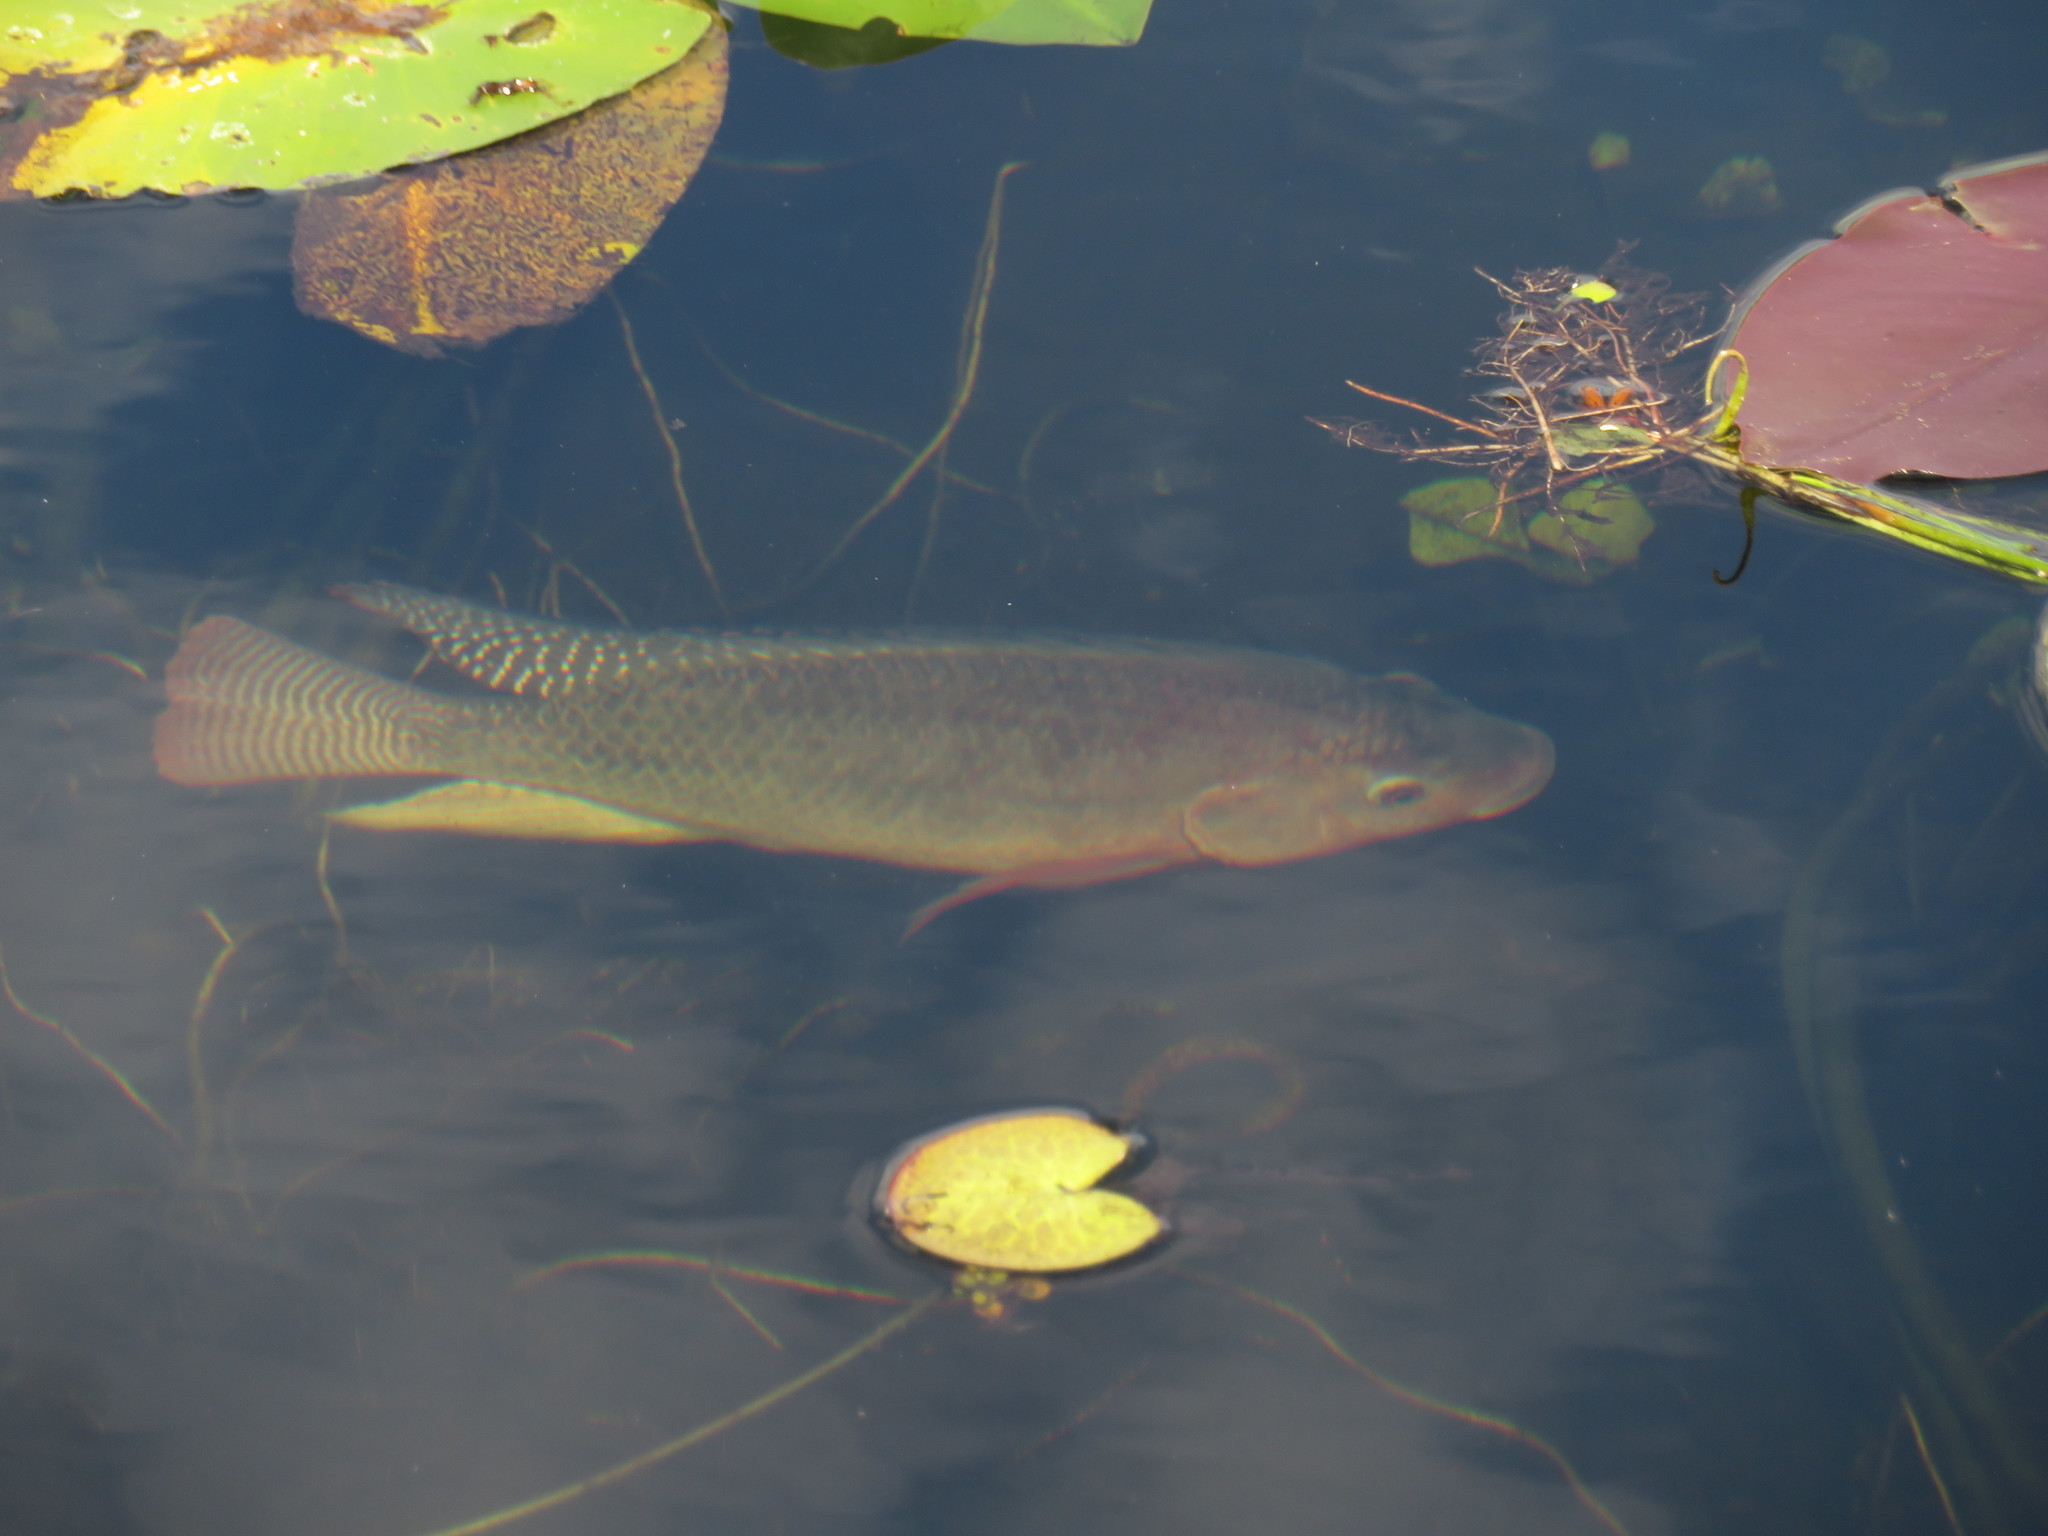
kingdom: Animalia
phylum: Chordata
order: Perciformes
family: Cichlidae
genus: Oreochromis
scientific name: Oreochromis niloticus
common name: Nile tilapia
